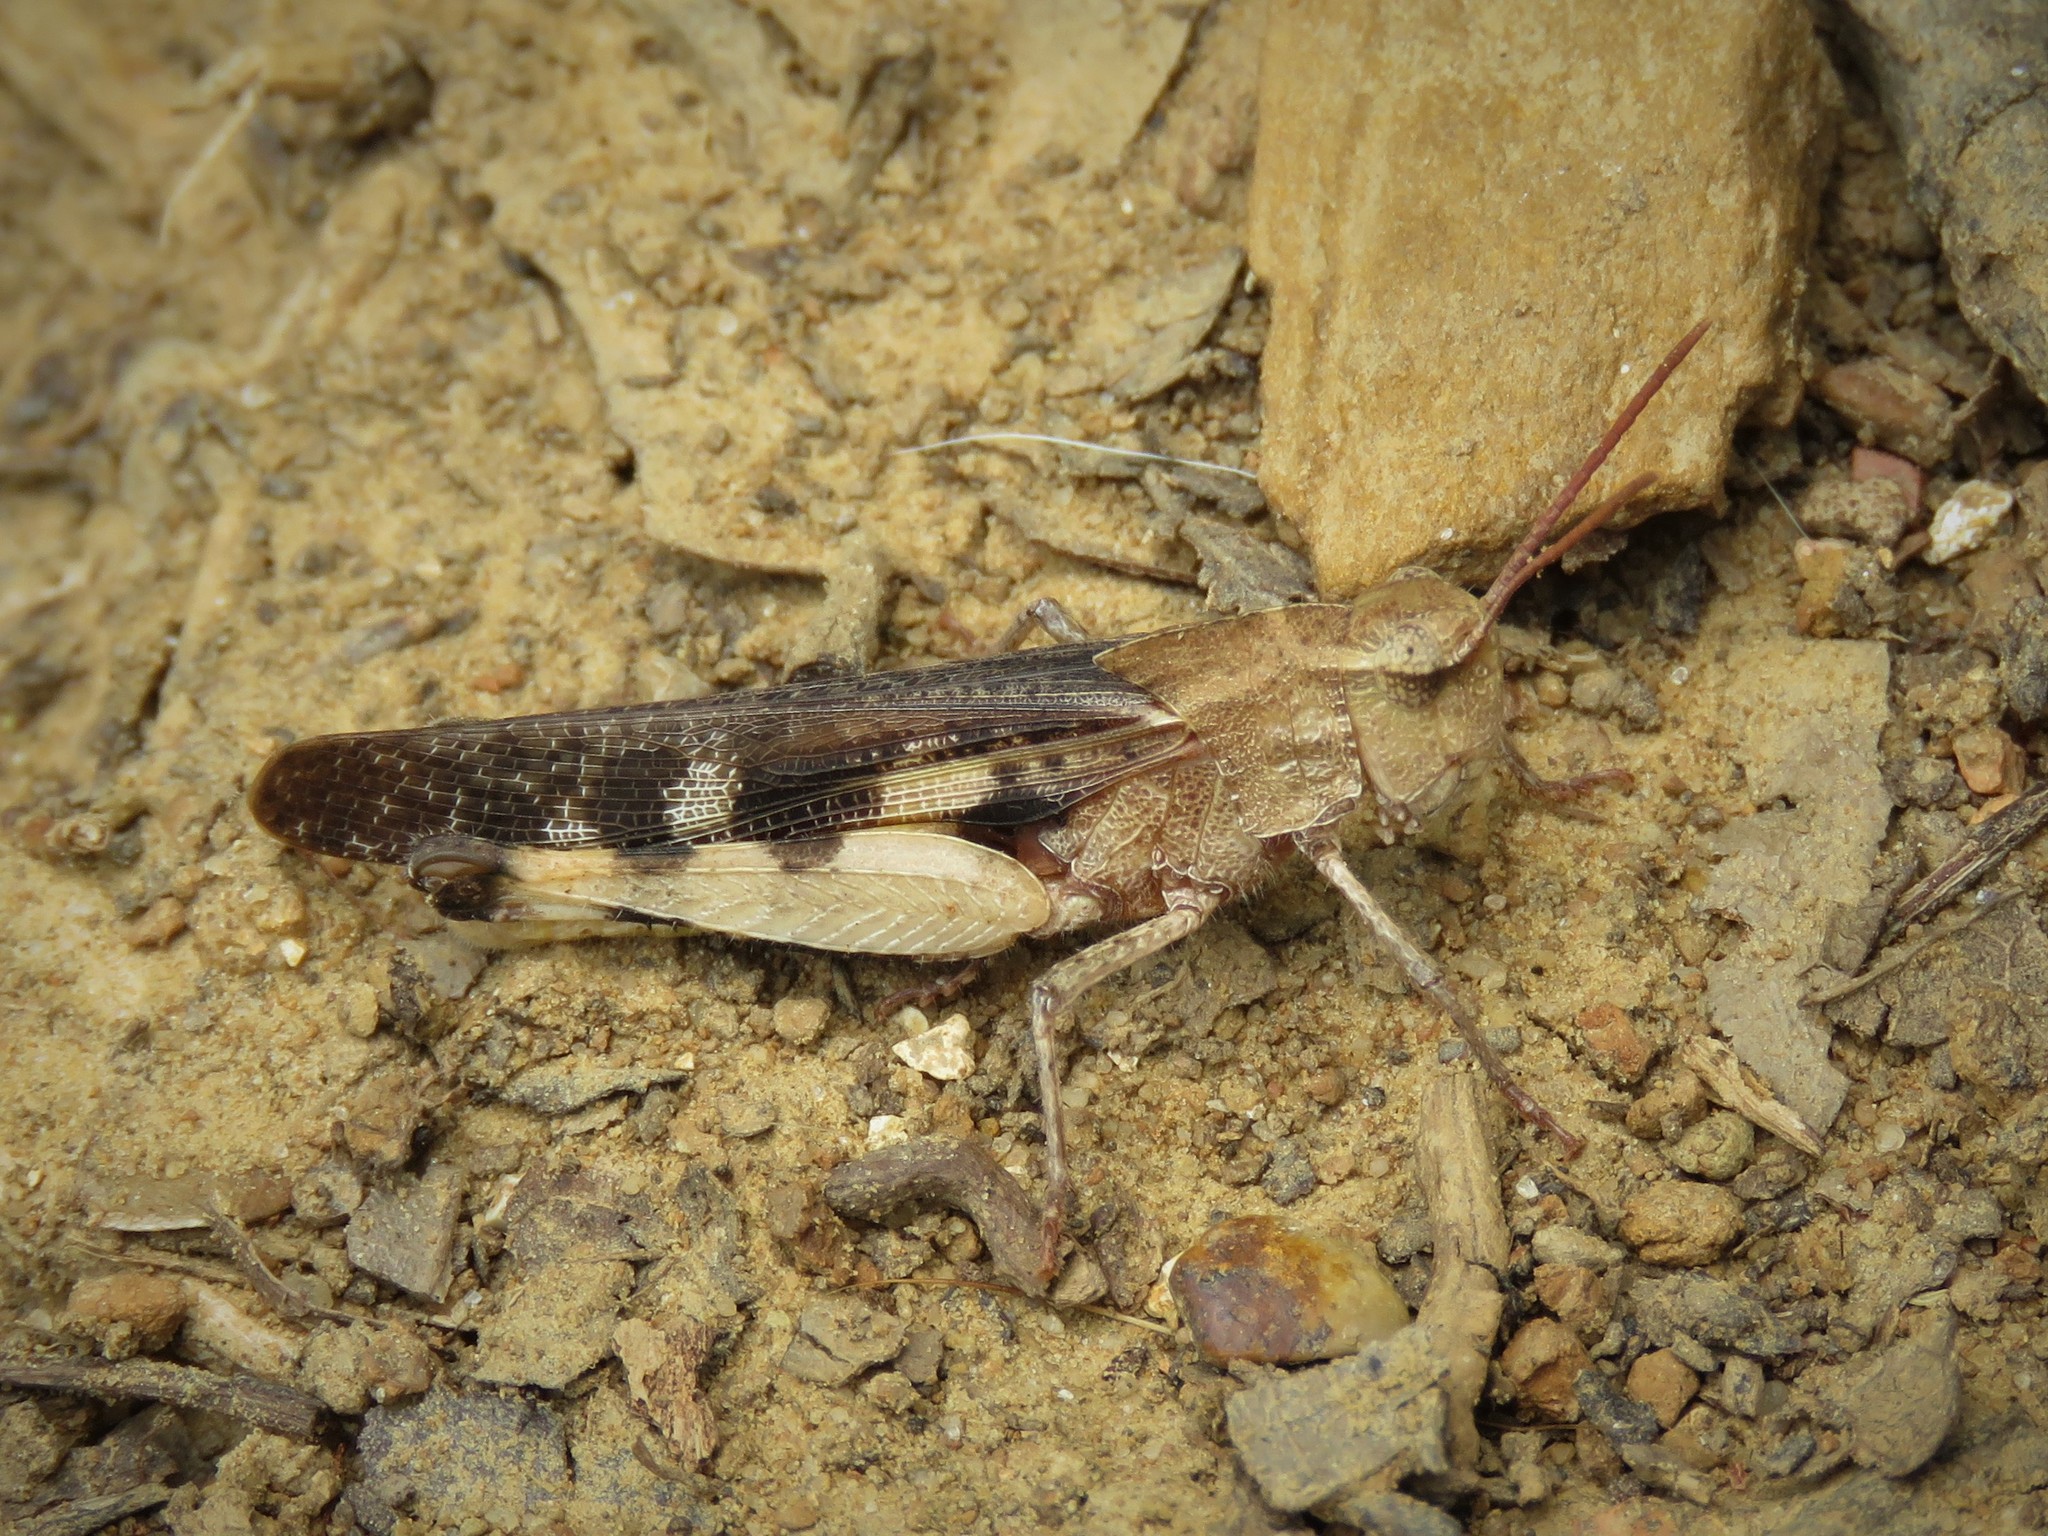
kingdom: Animalia
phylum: Arthropoda
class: Insecta
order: Orthoptera
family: Acrididae
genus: Chortophaga
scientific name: Chortophaga viridifasciata
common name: Green-striped grasshopper
